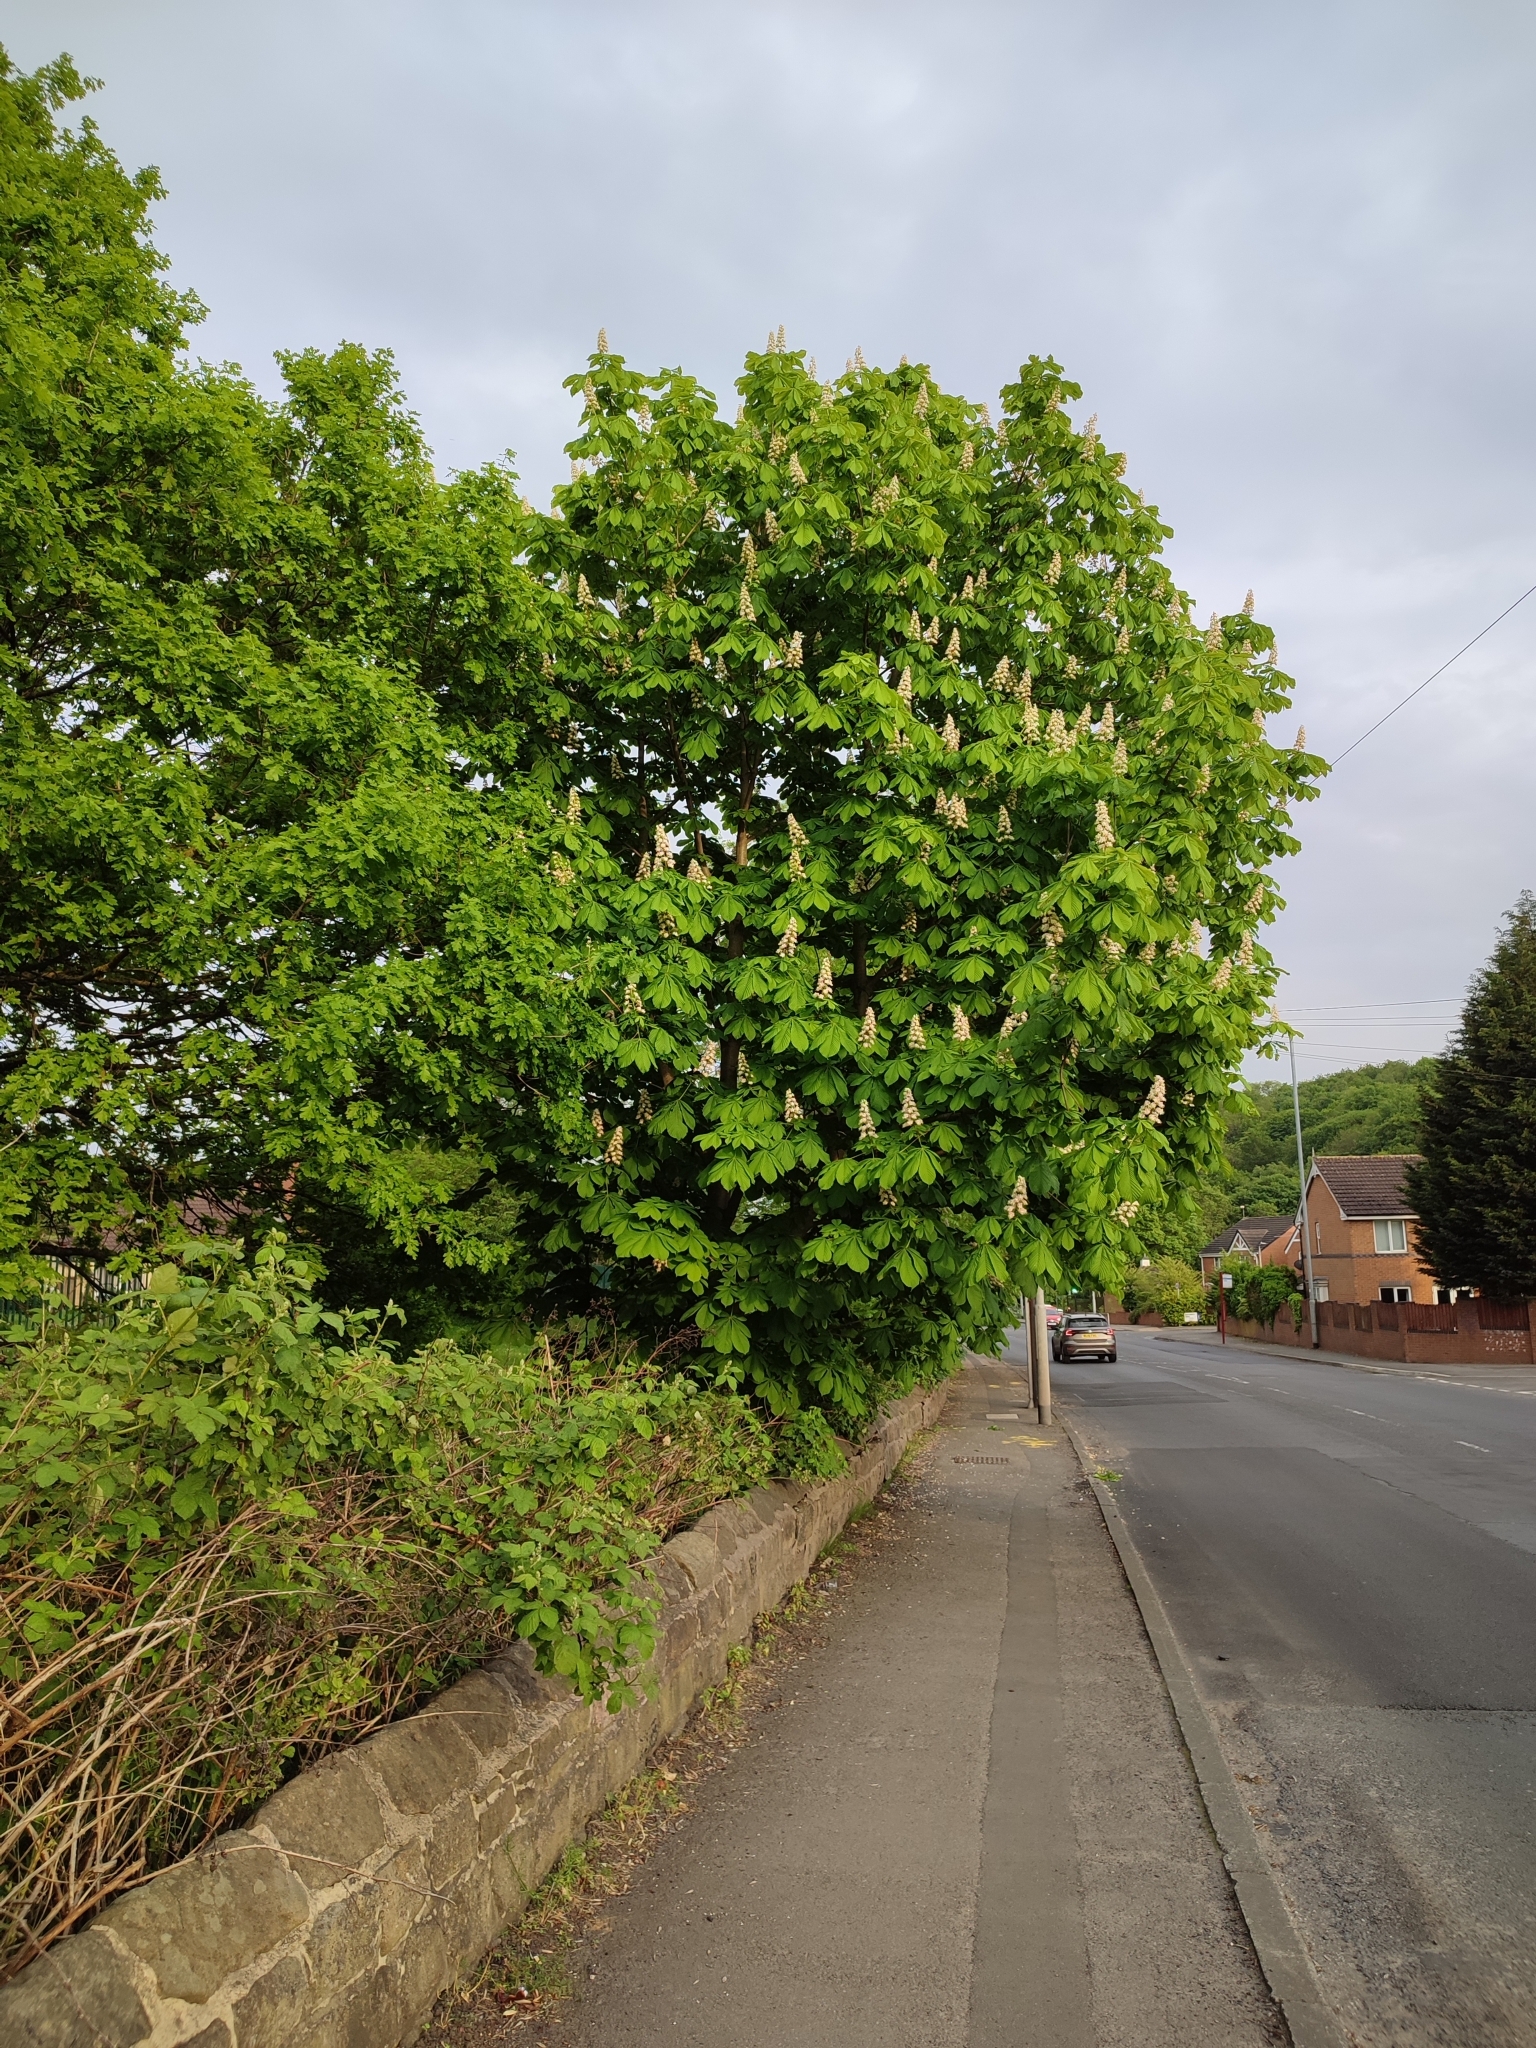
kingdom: Plantae
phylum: Tracheophyta
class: Magnoliopsida
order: Sapindales
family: Sapindaceae
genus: Aesculus
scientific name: Aesculus hippocastanum
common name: Horse-chestnut
